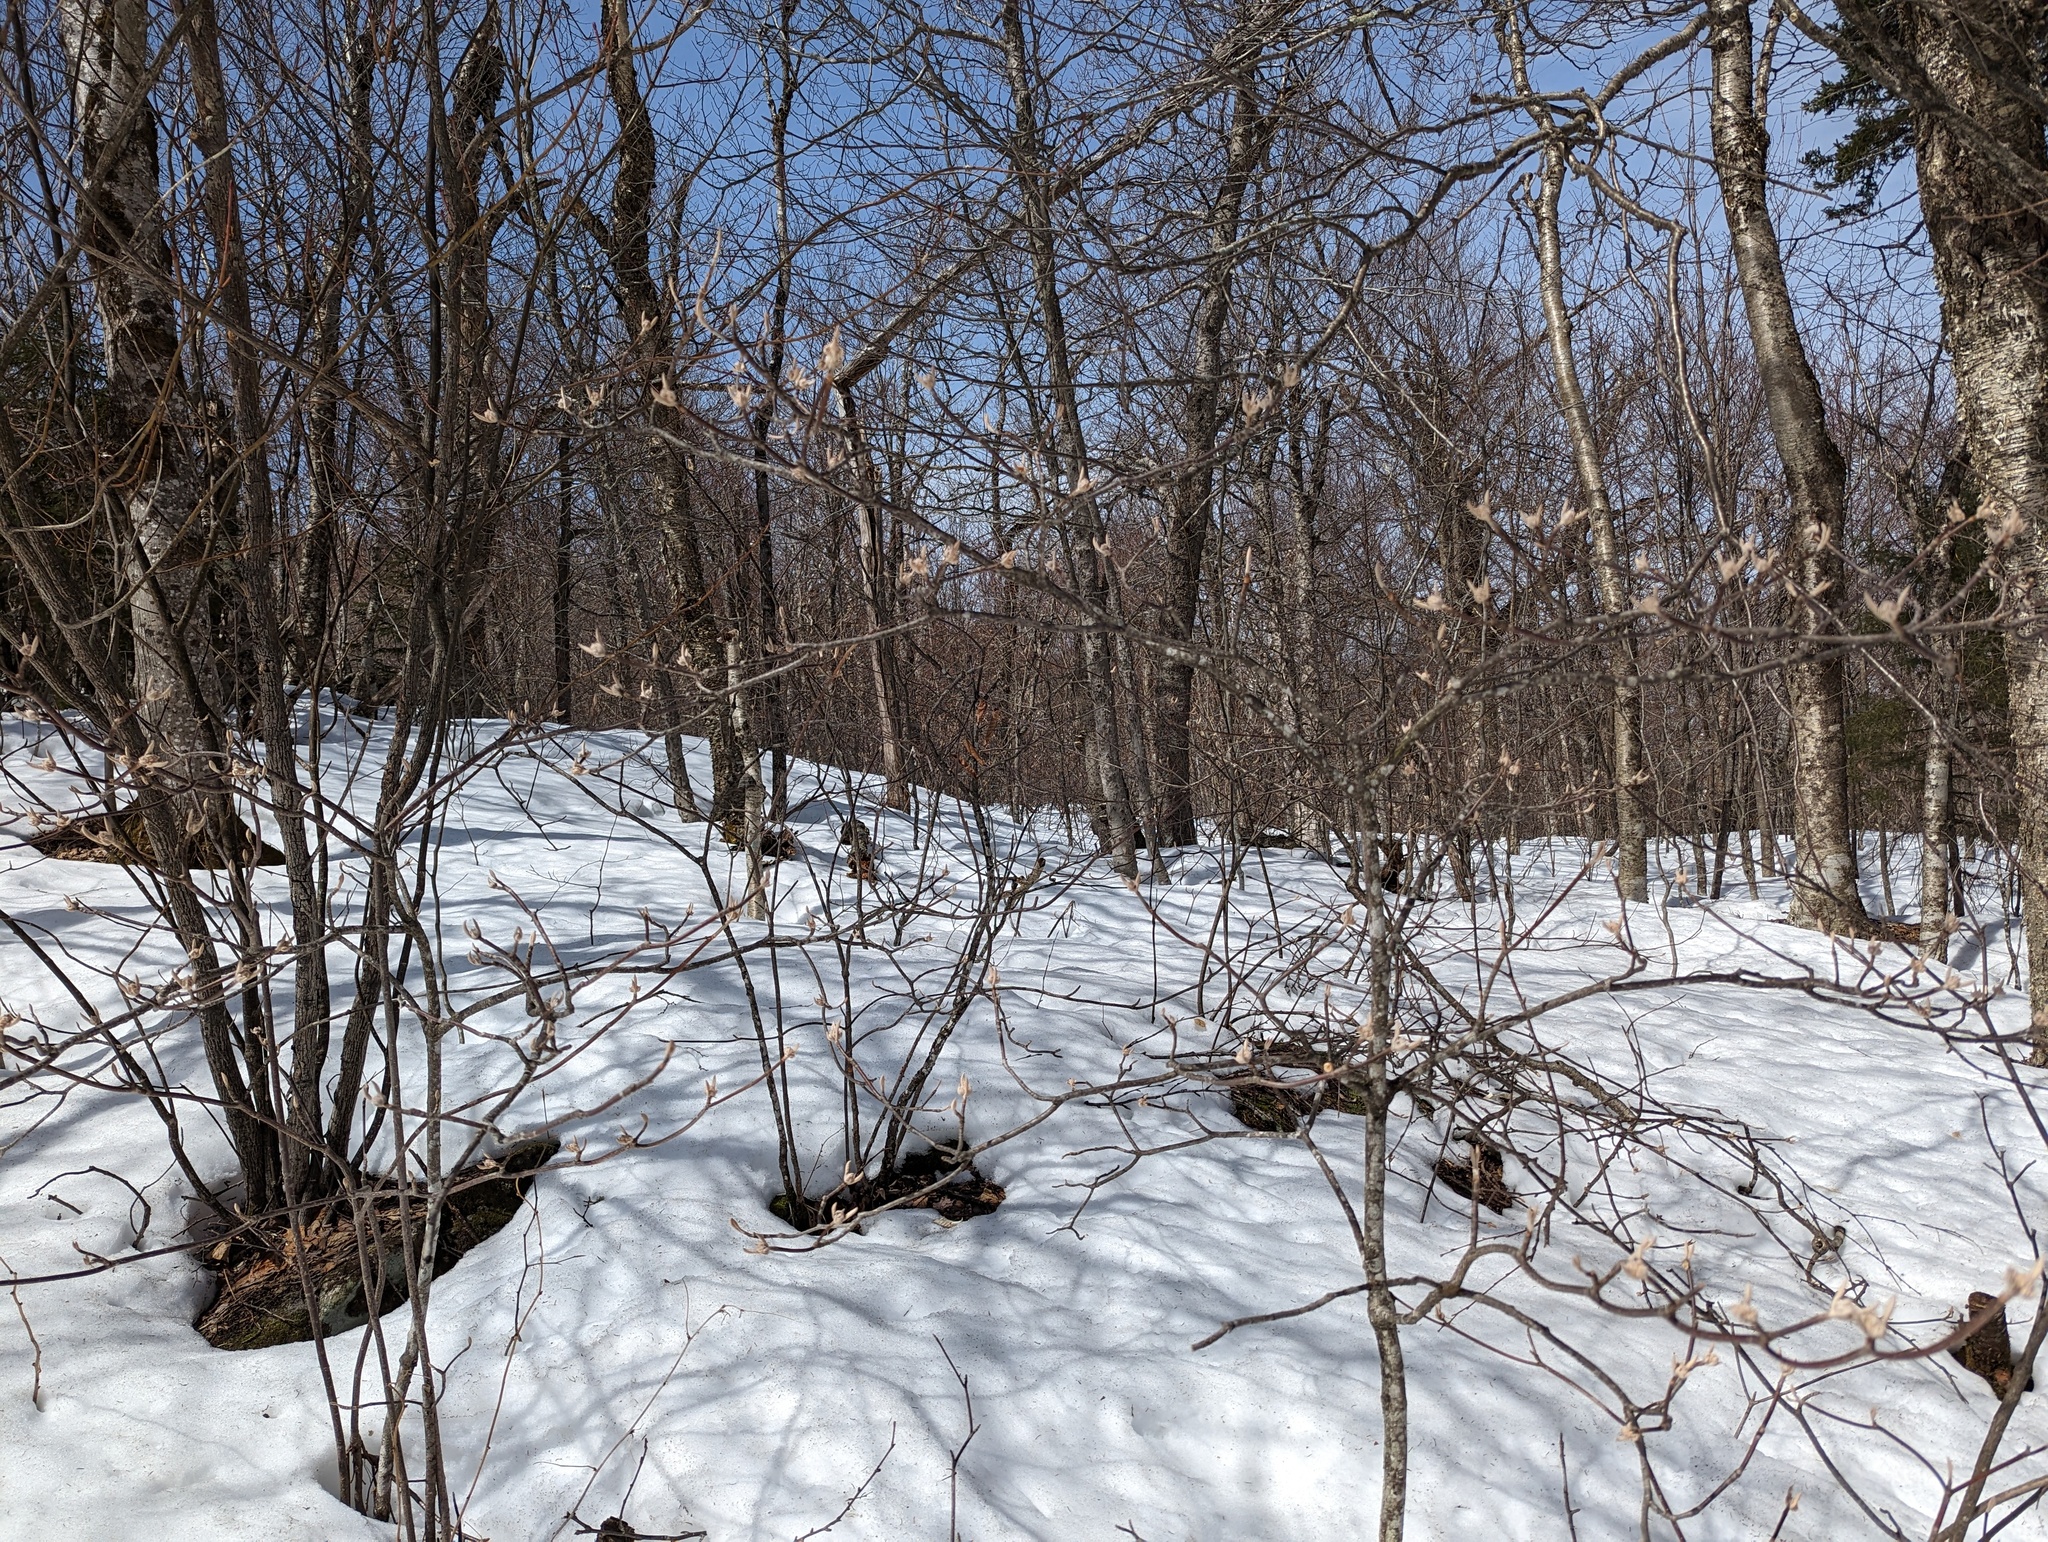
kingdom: Plantae
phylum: Tracheophyta
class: Magnoliopsida
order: Dipsacales
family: Viburnaceae
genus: Viburnum
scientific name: Viburnum lantanoides
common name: Hobblebush
